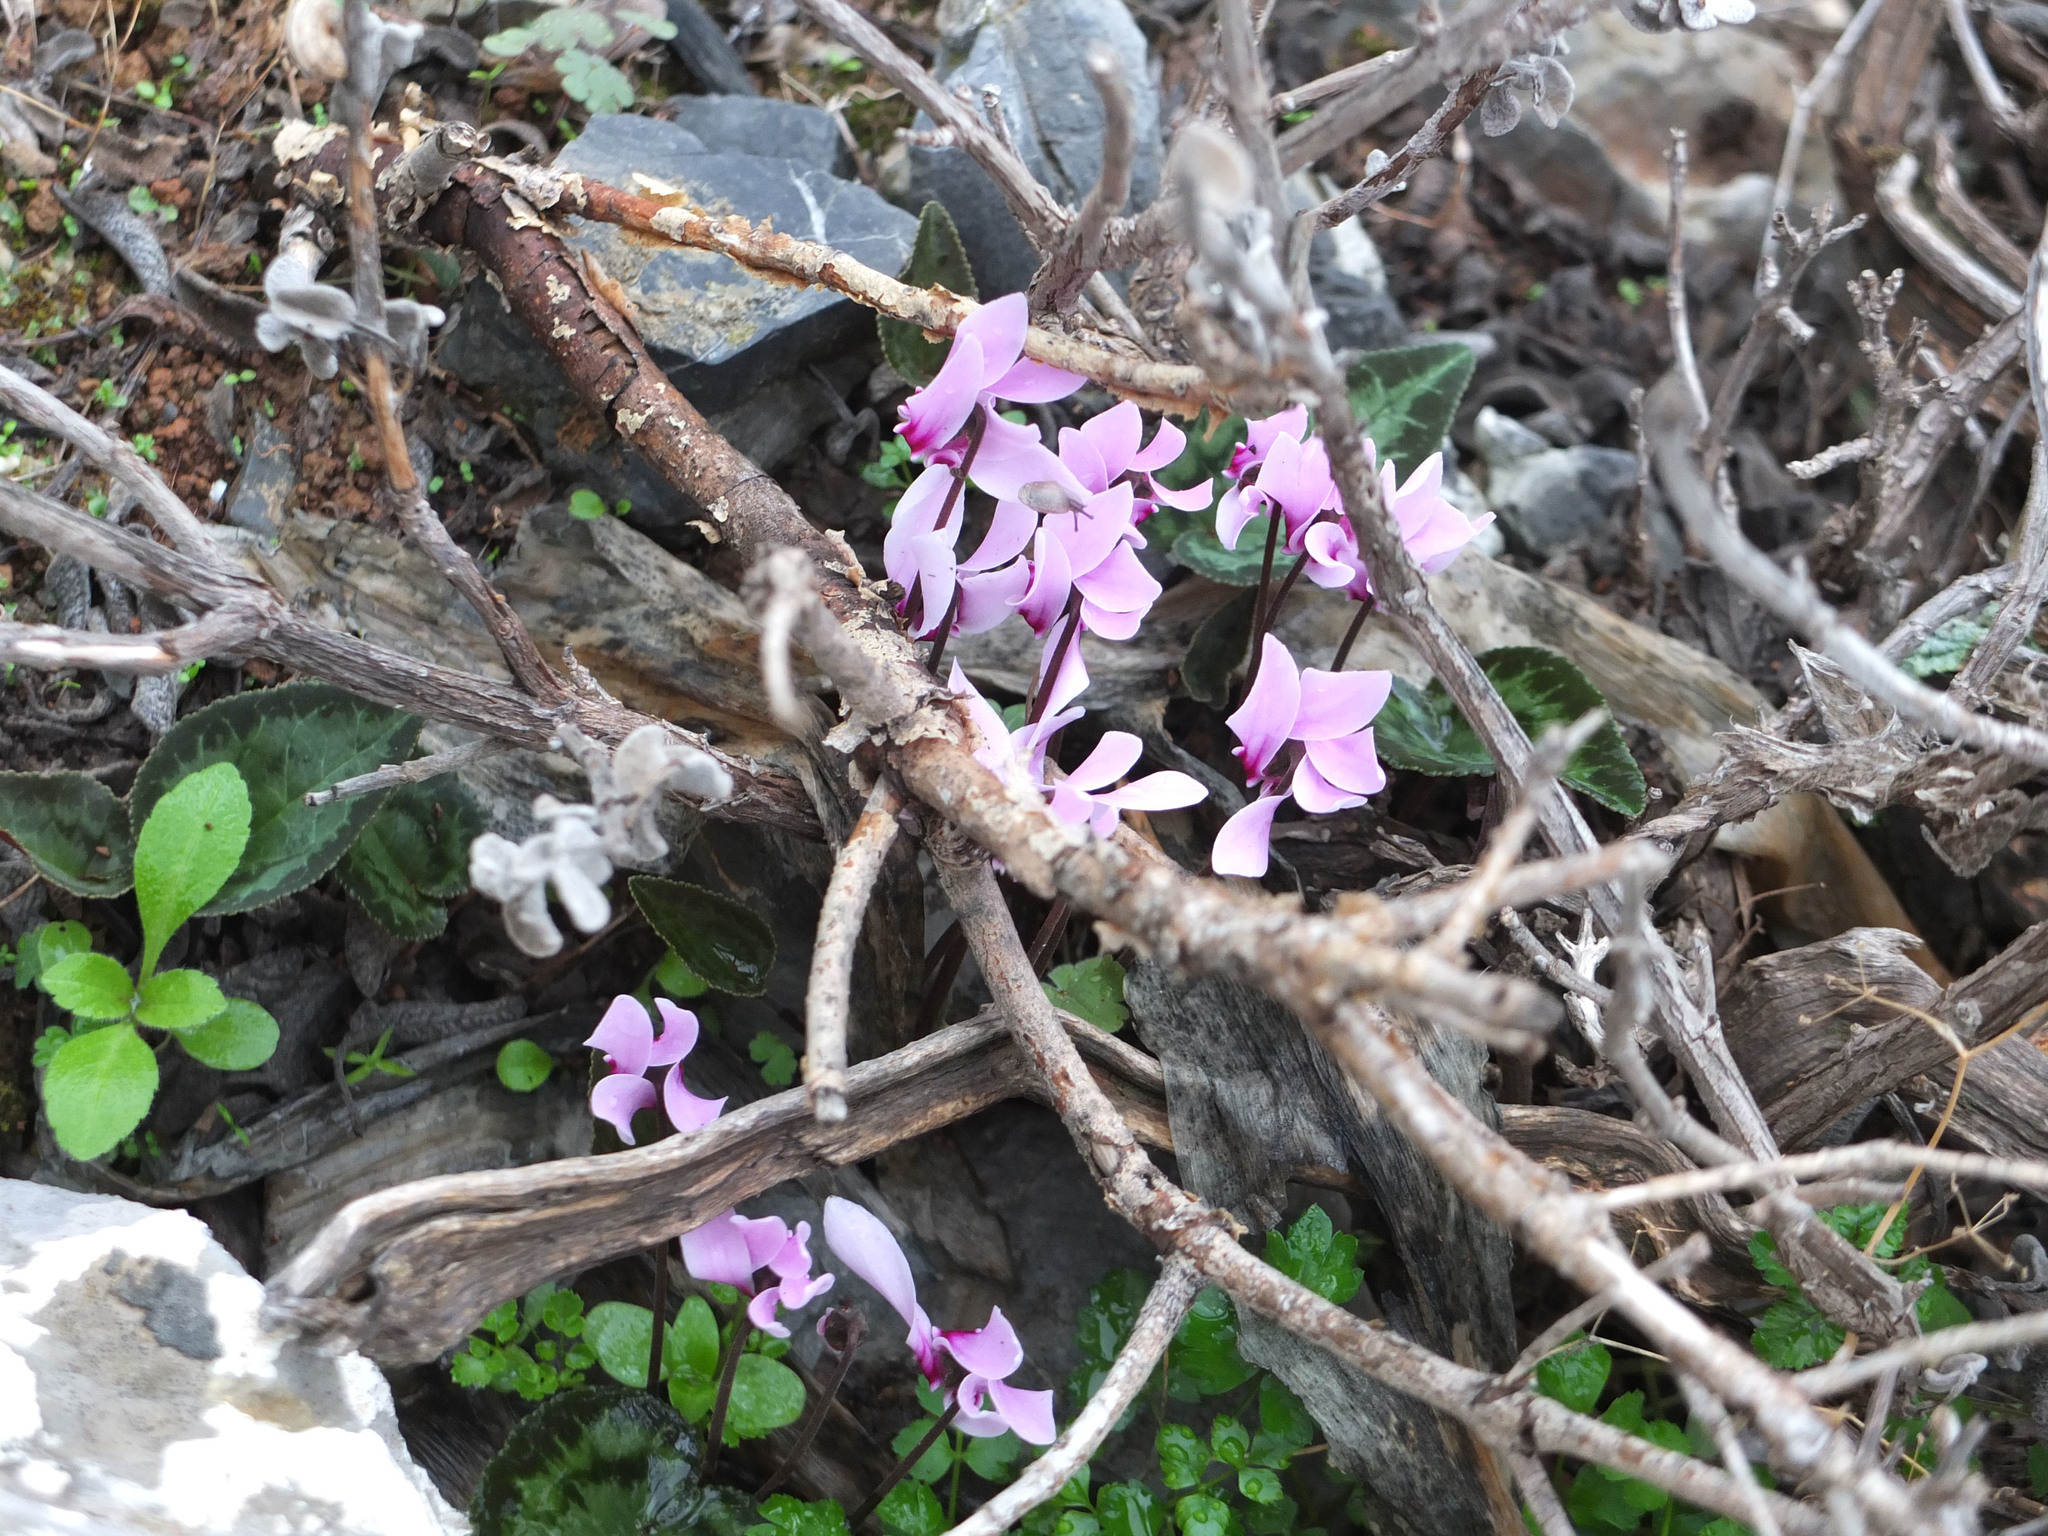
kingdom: Plantae
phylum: Tracheophyta
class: Magnoliopsida
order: Ericales
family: Primulaceae
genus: Cyclamen
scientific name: Cyclamen graecum
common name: Greek cyclamen
